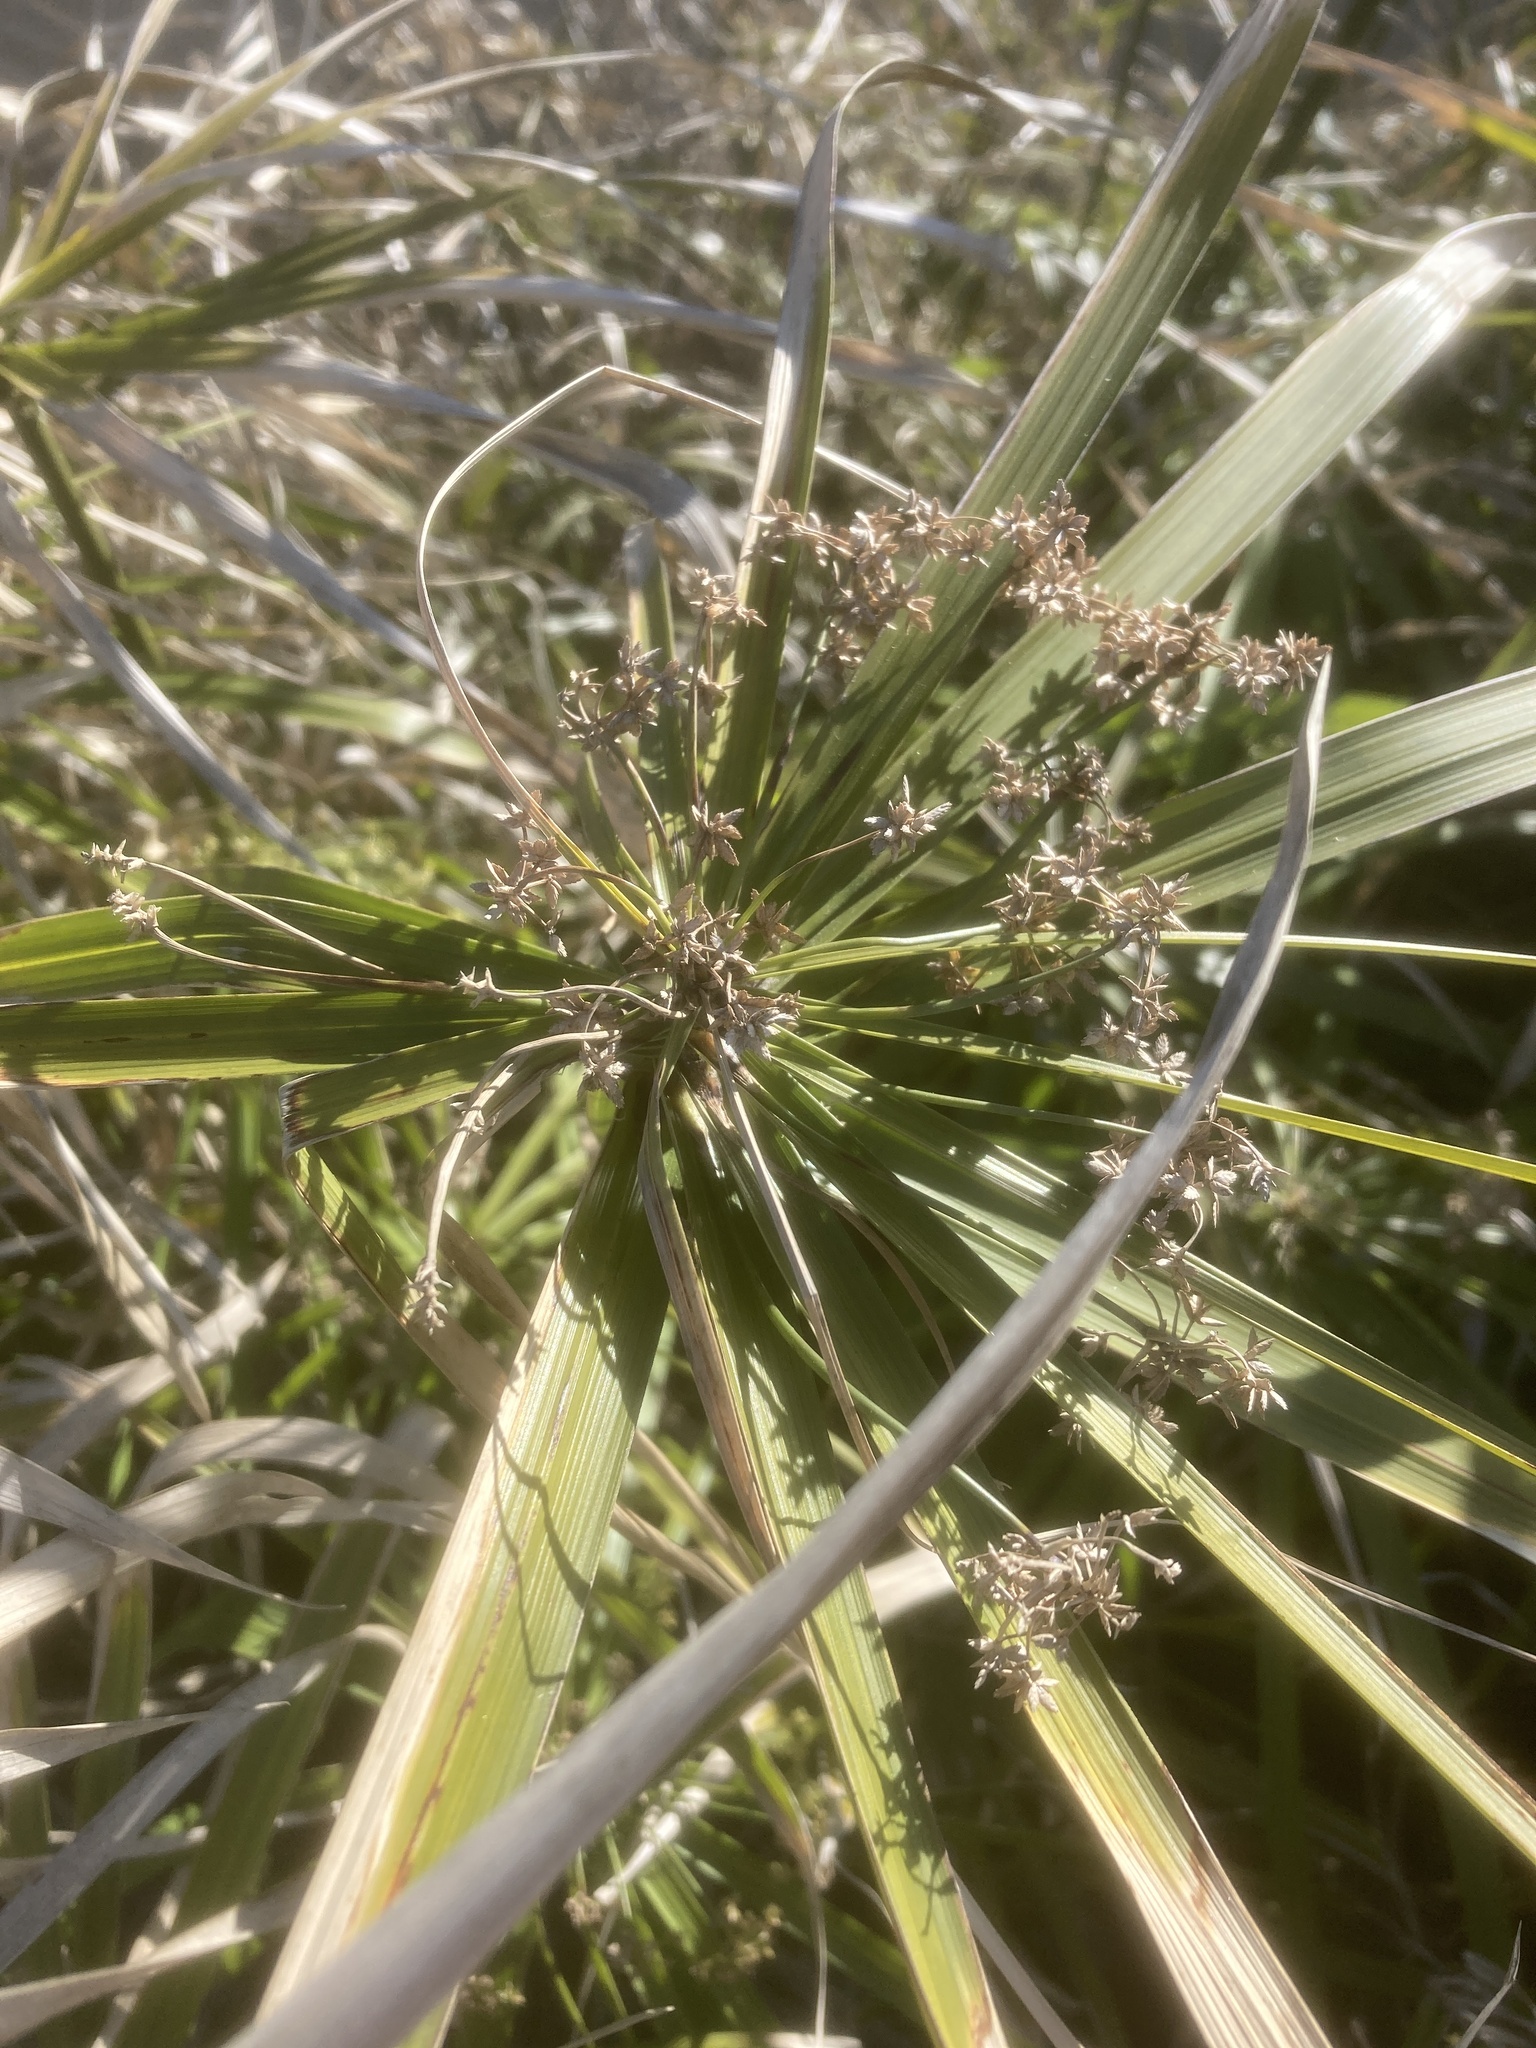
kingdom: Plantae
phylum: Tracheophyta
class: Liliopsida
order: Poales
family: Cyperaceae
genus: Cyperus
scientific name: Cyperus alternifolius
